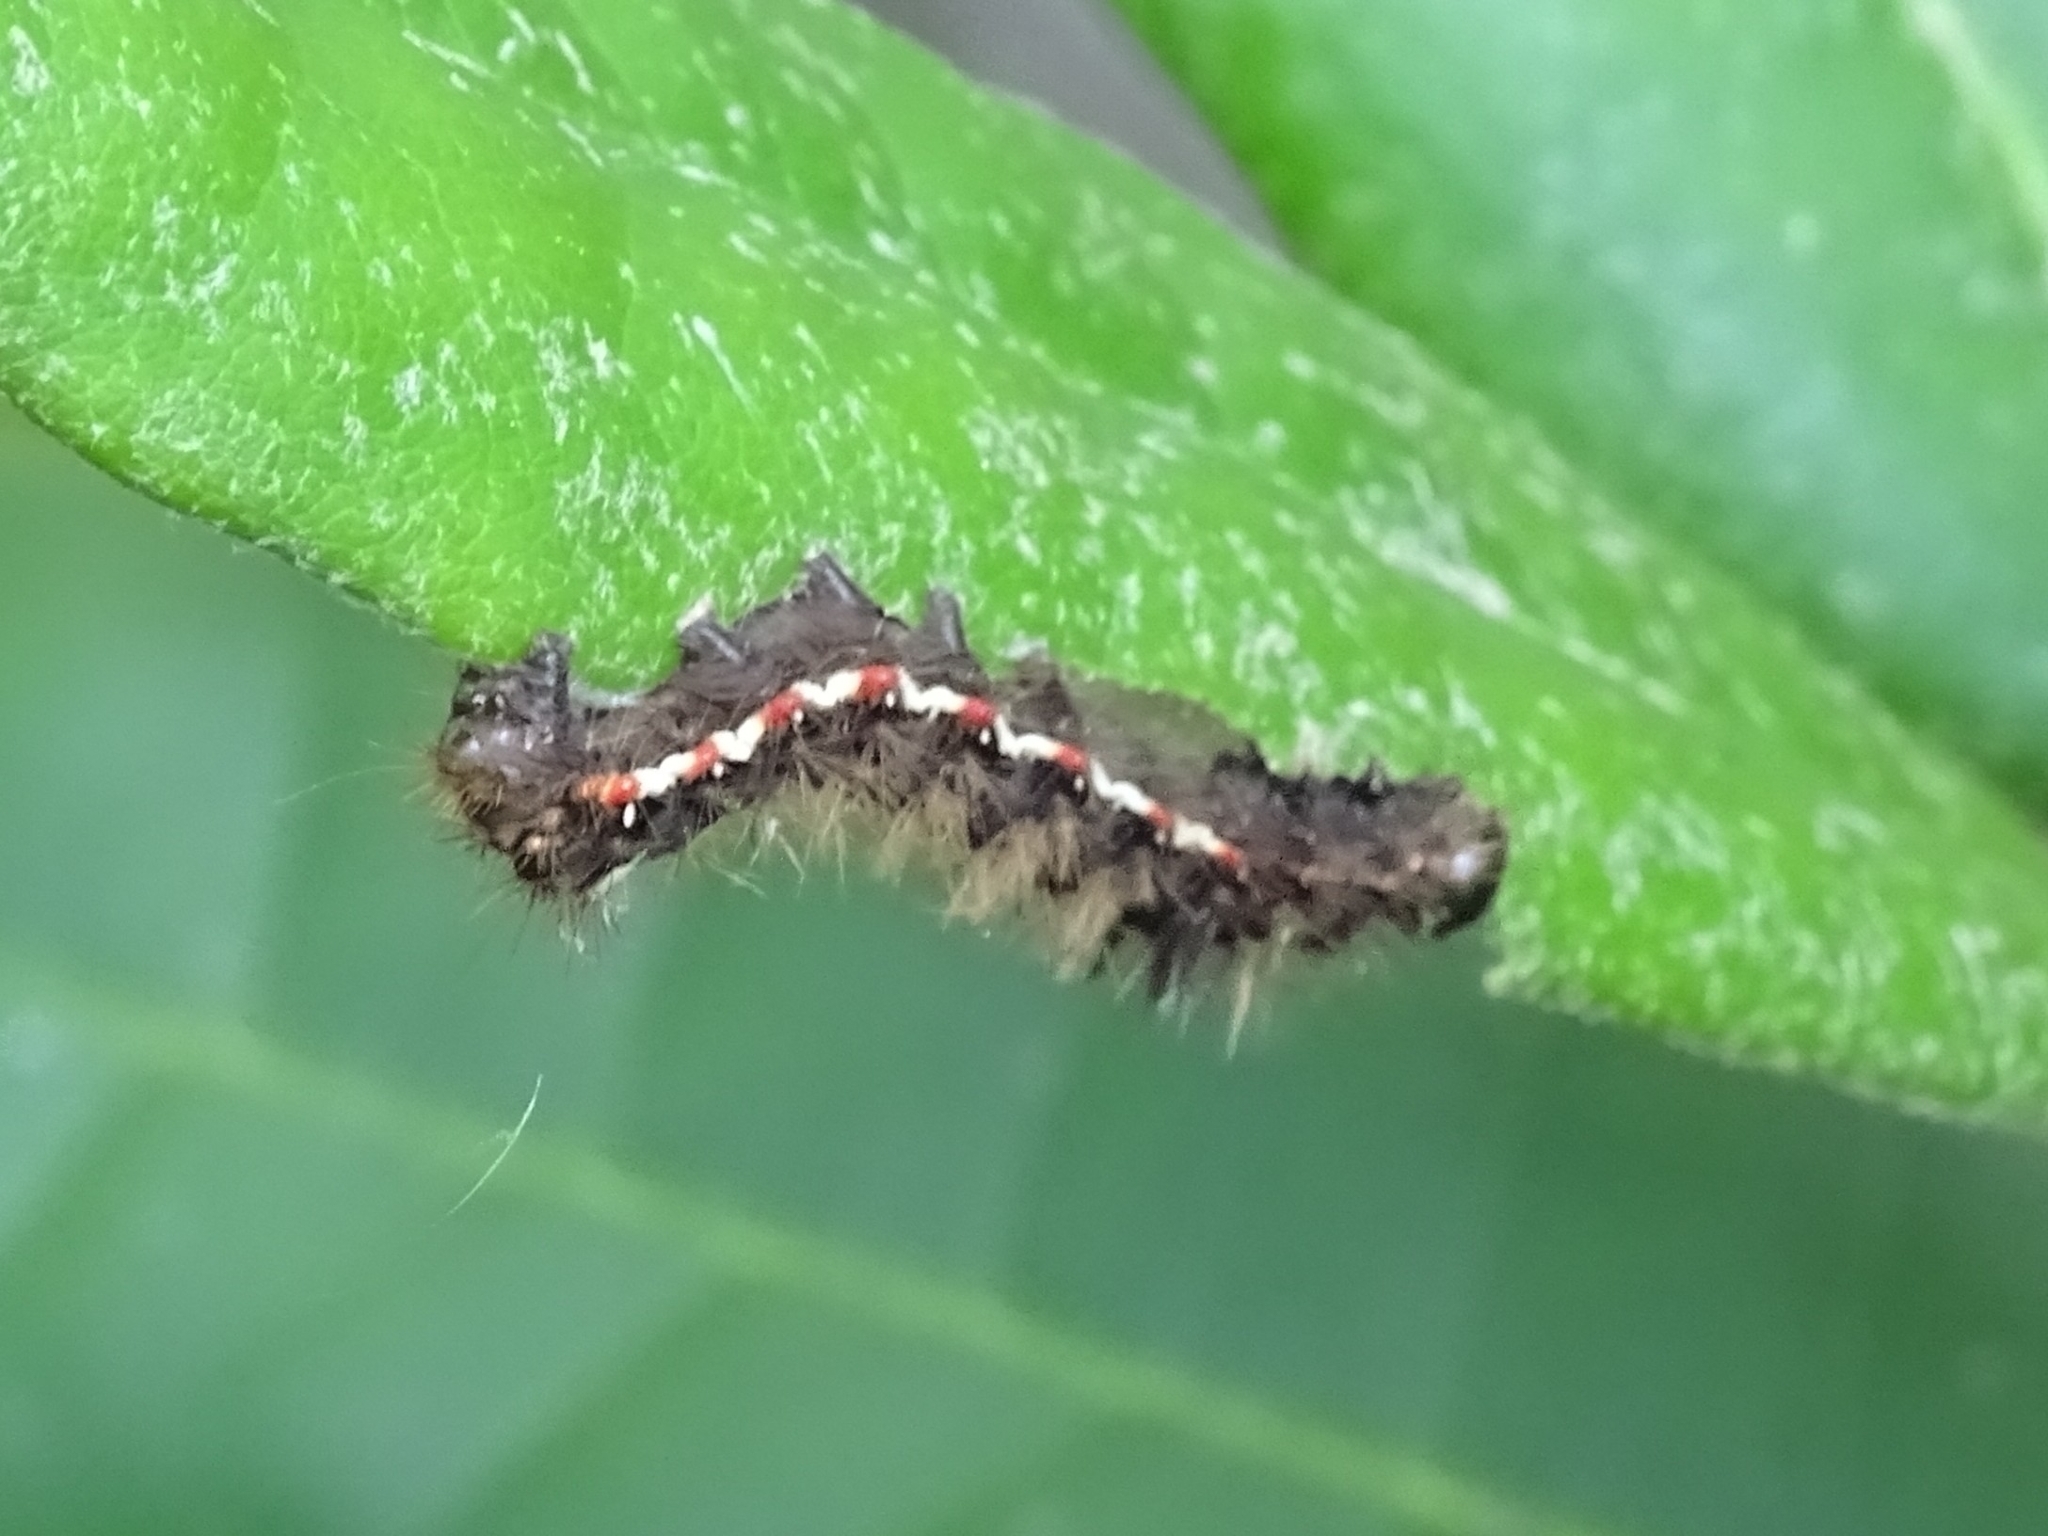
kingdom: Animalia
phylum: Arthropoda
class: Insecta
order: Lepidoptera
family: Noctuidae
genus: Acronicta
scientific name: Acronicta rumicis
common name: Knot grass
